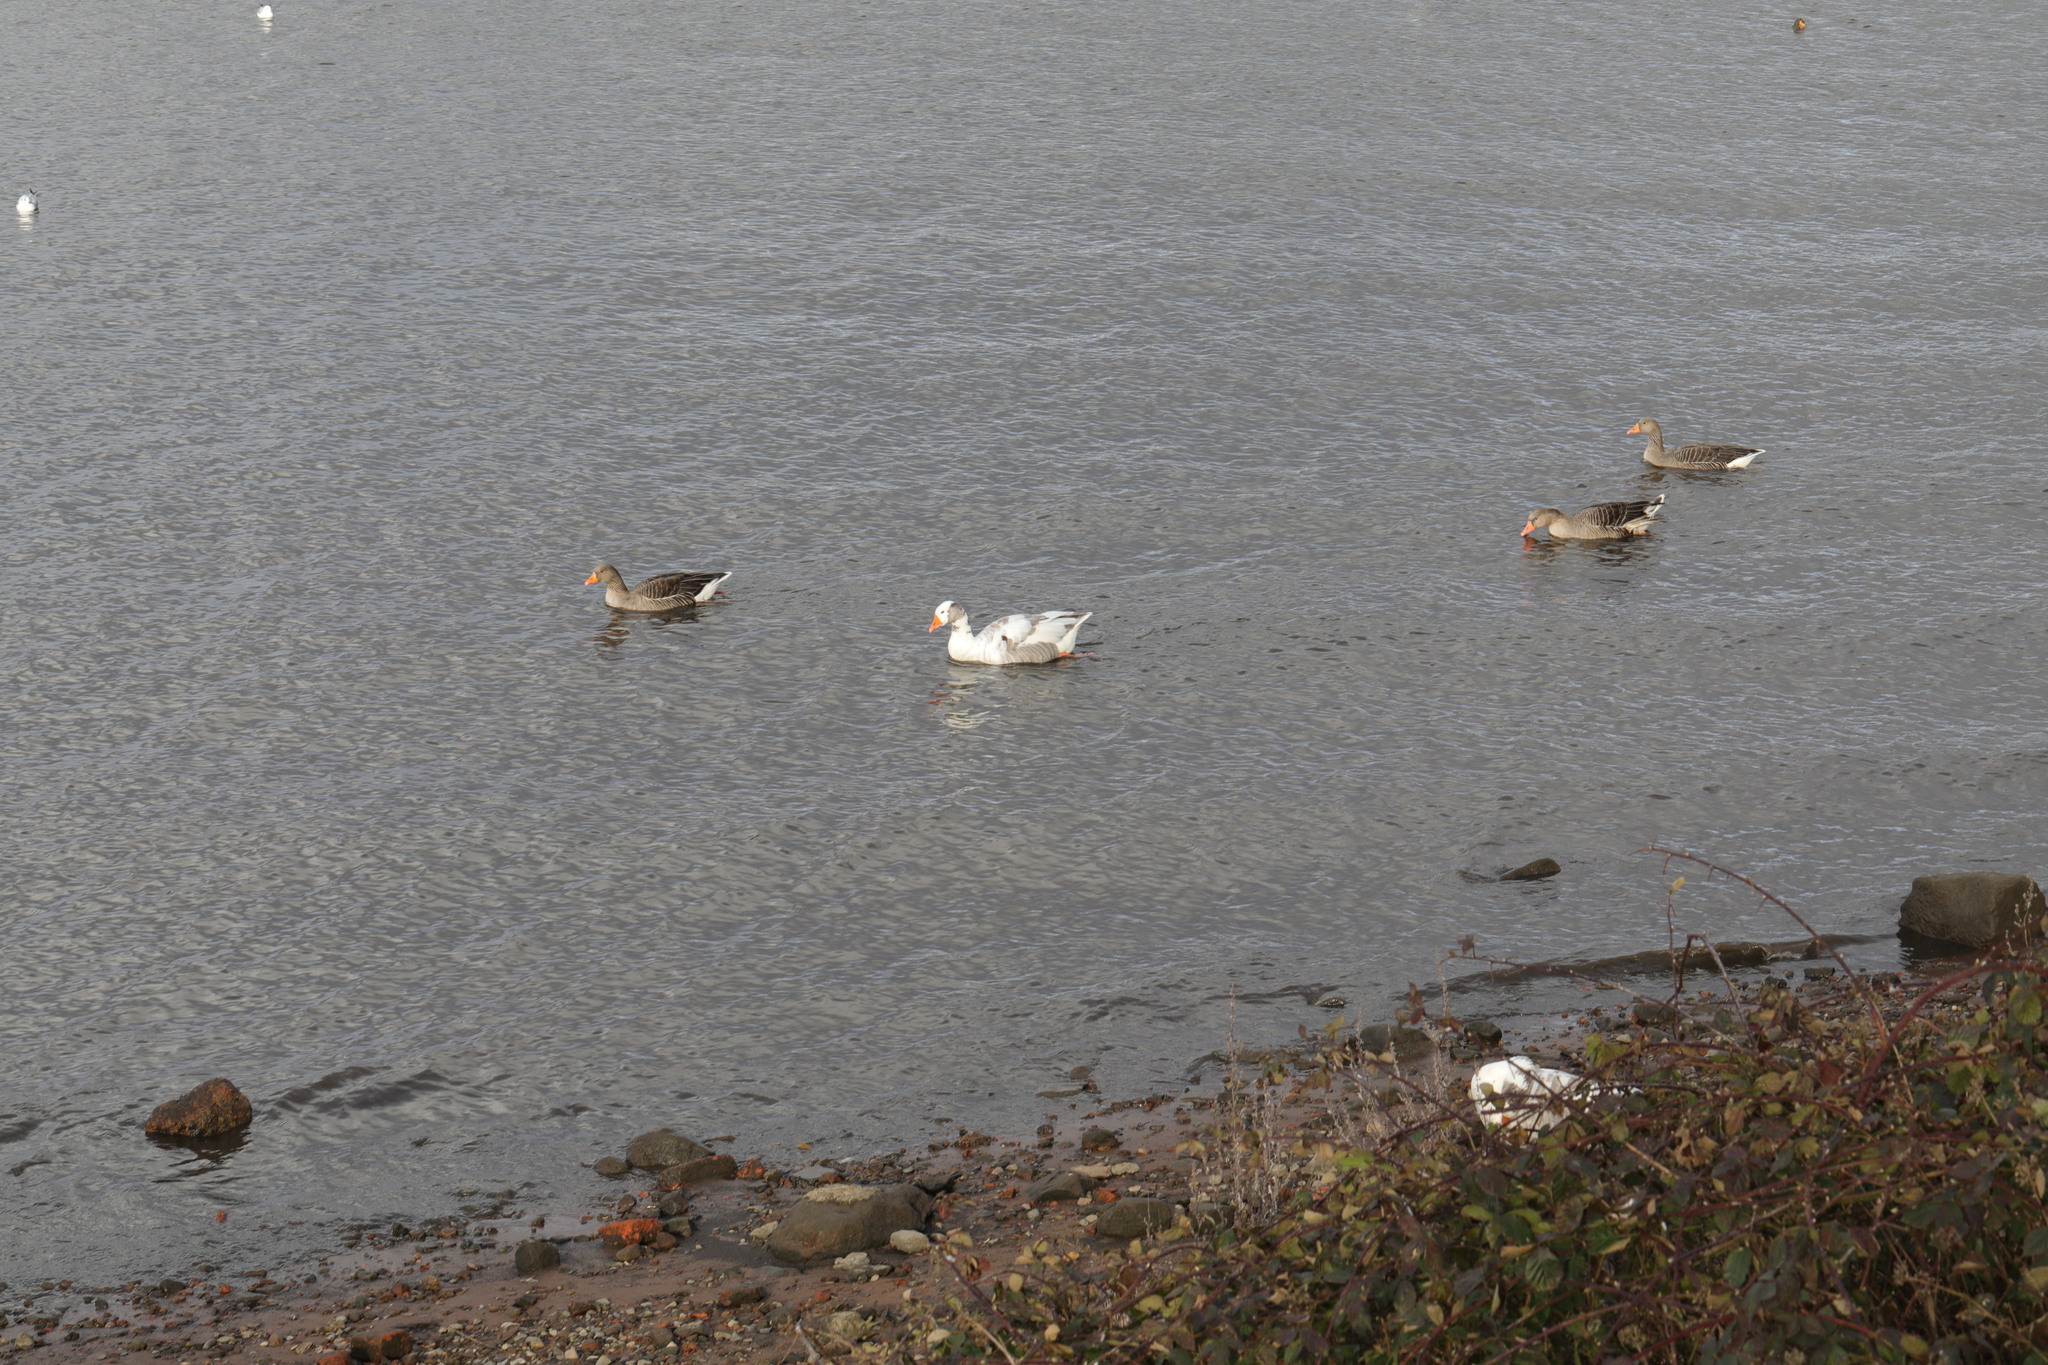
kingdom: Animalia
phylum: Chordata
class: Aves
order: Anseriformes
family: Anatidae
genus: Anser
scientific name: Anser anser
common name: Greylag goose
